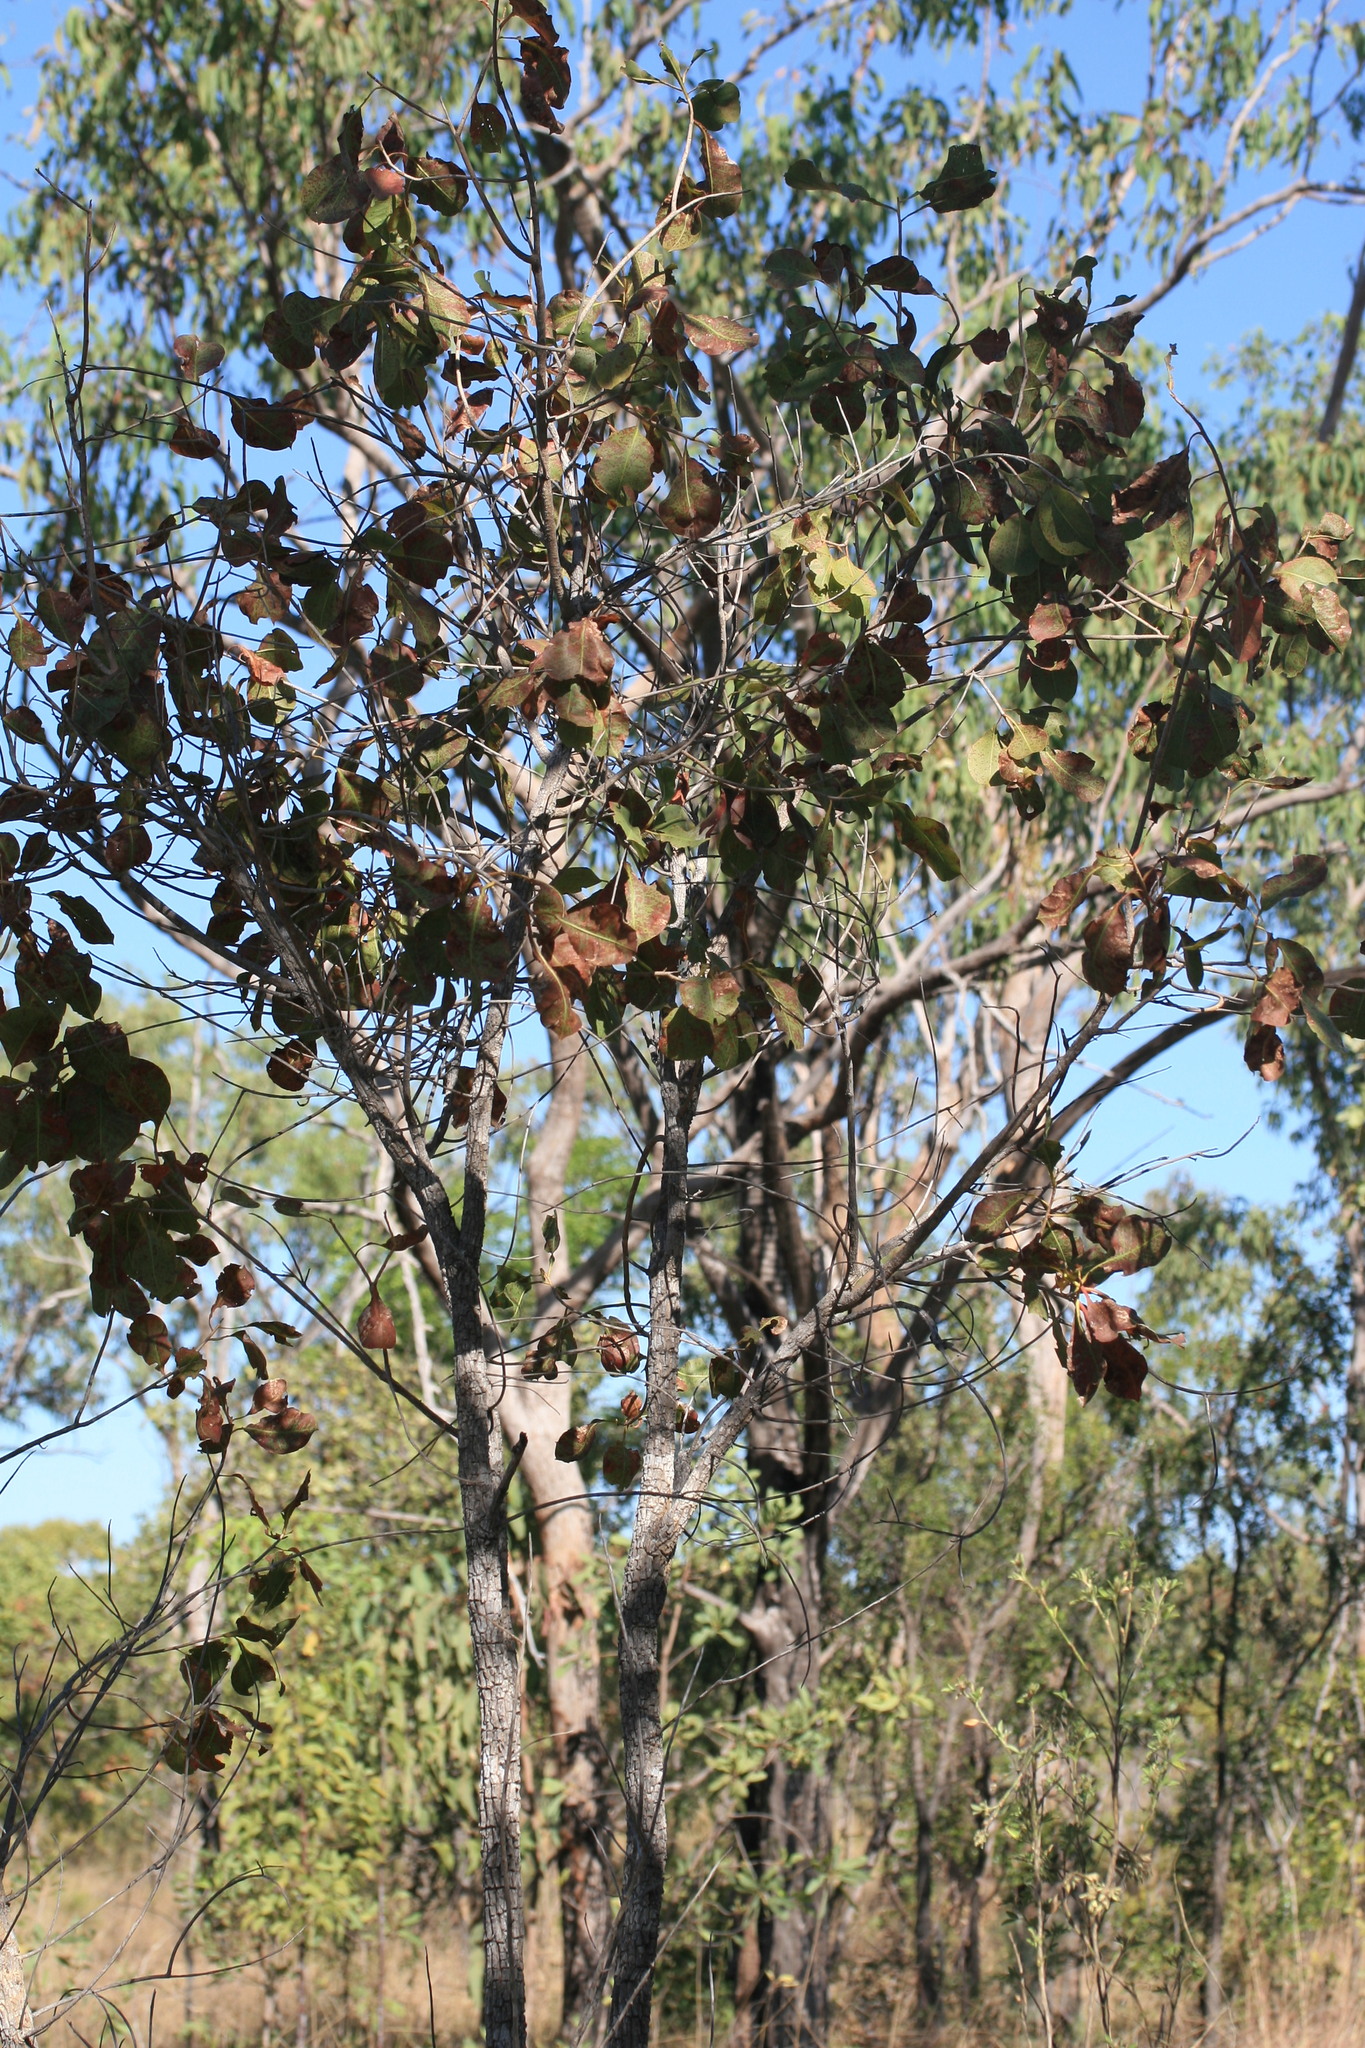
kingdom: Plantae
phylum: Tracheophyta
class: Magnoliopsida
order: Ericales
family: Lecythidaceae
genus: Planchonia
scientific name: Planchonia careya
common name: Cockatoo-apple
